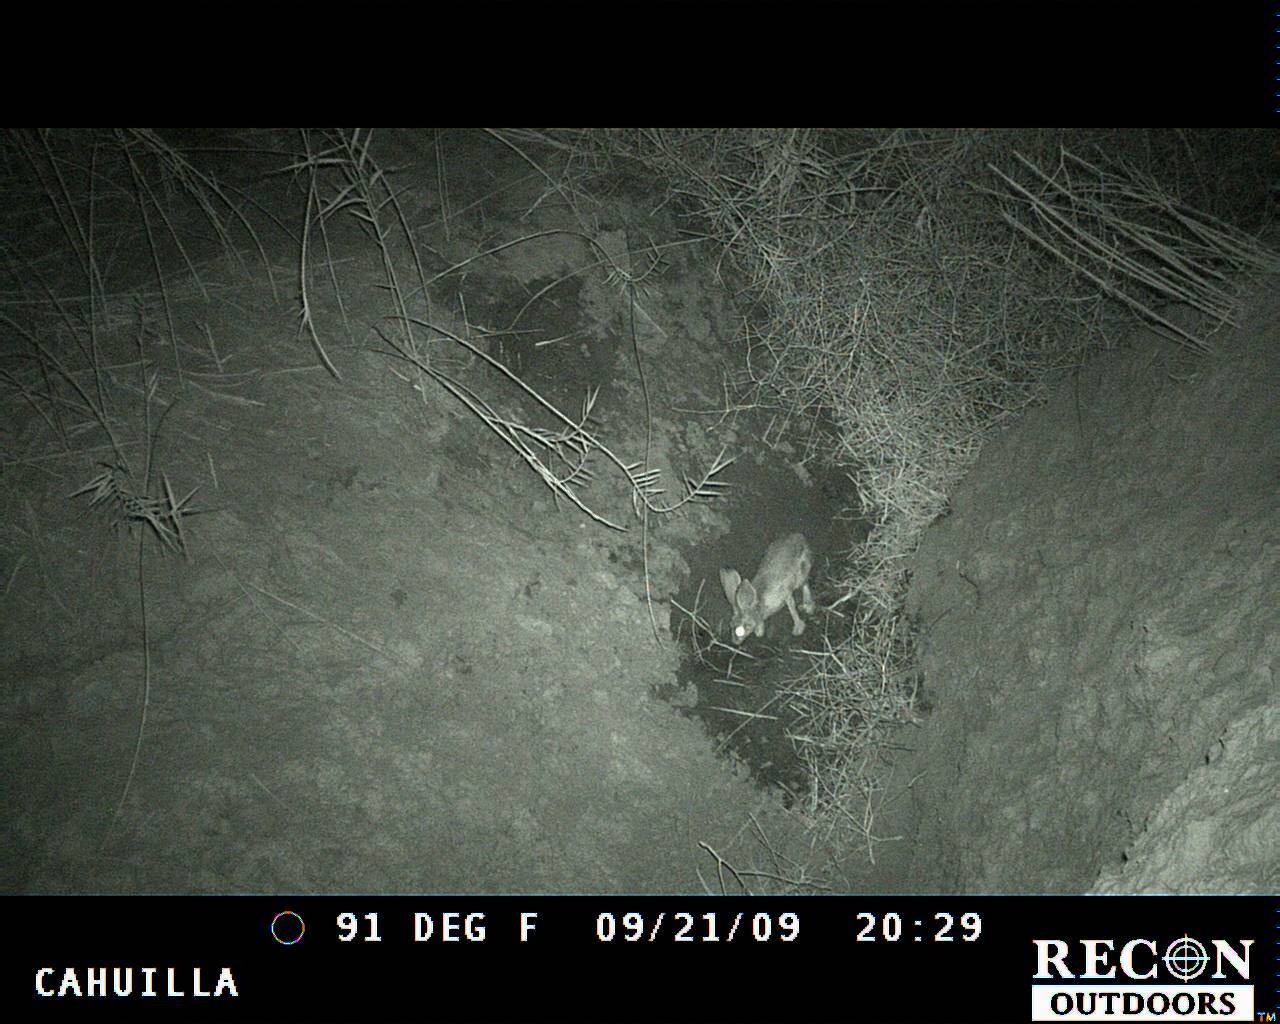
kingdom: Animalia
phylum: Chordata
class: Mammalia
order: Lagomorpha
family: Leporidae
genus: Lepus
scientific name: Lepus californicus
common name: Black-tailed jackrabbit
